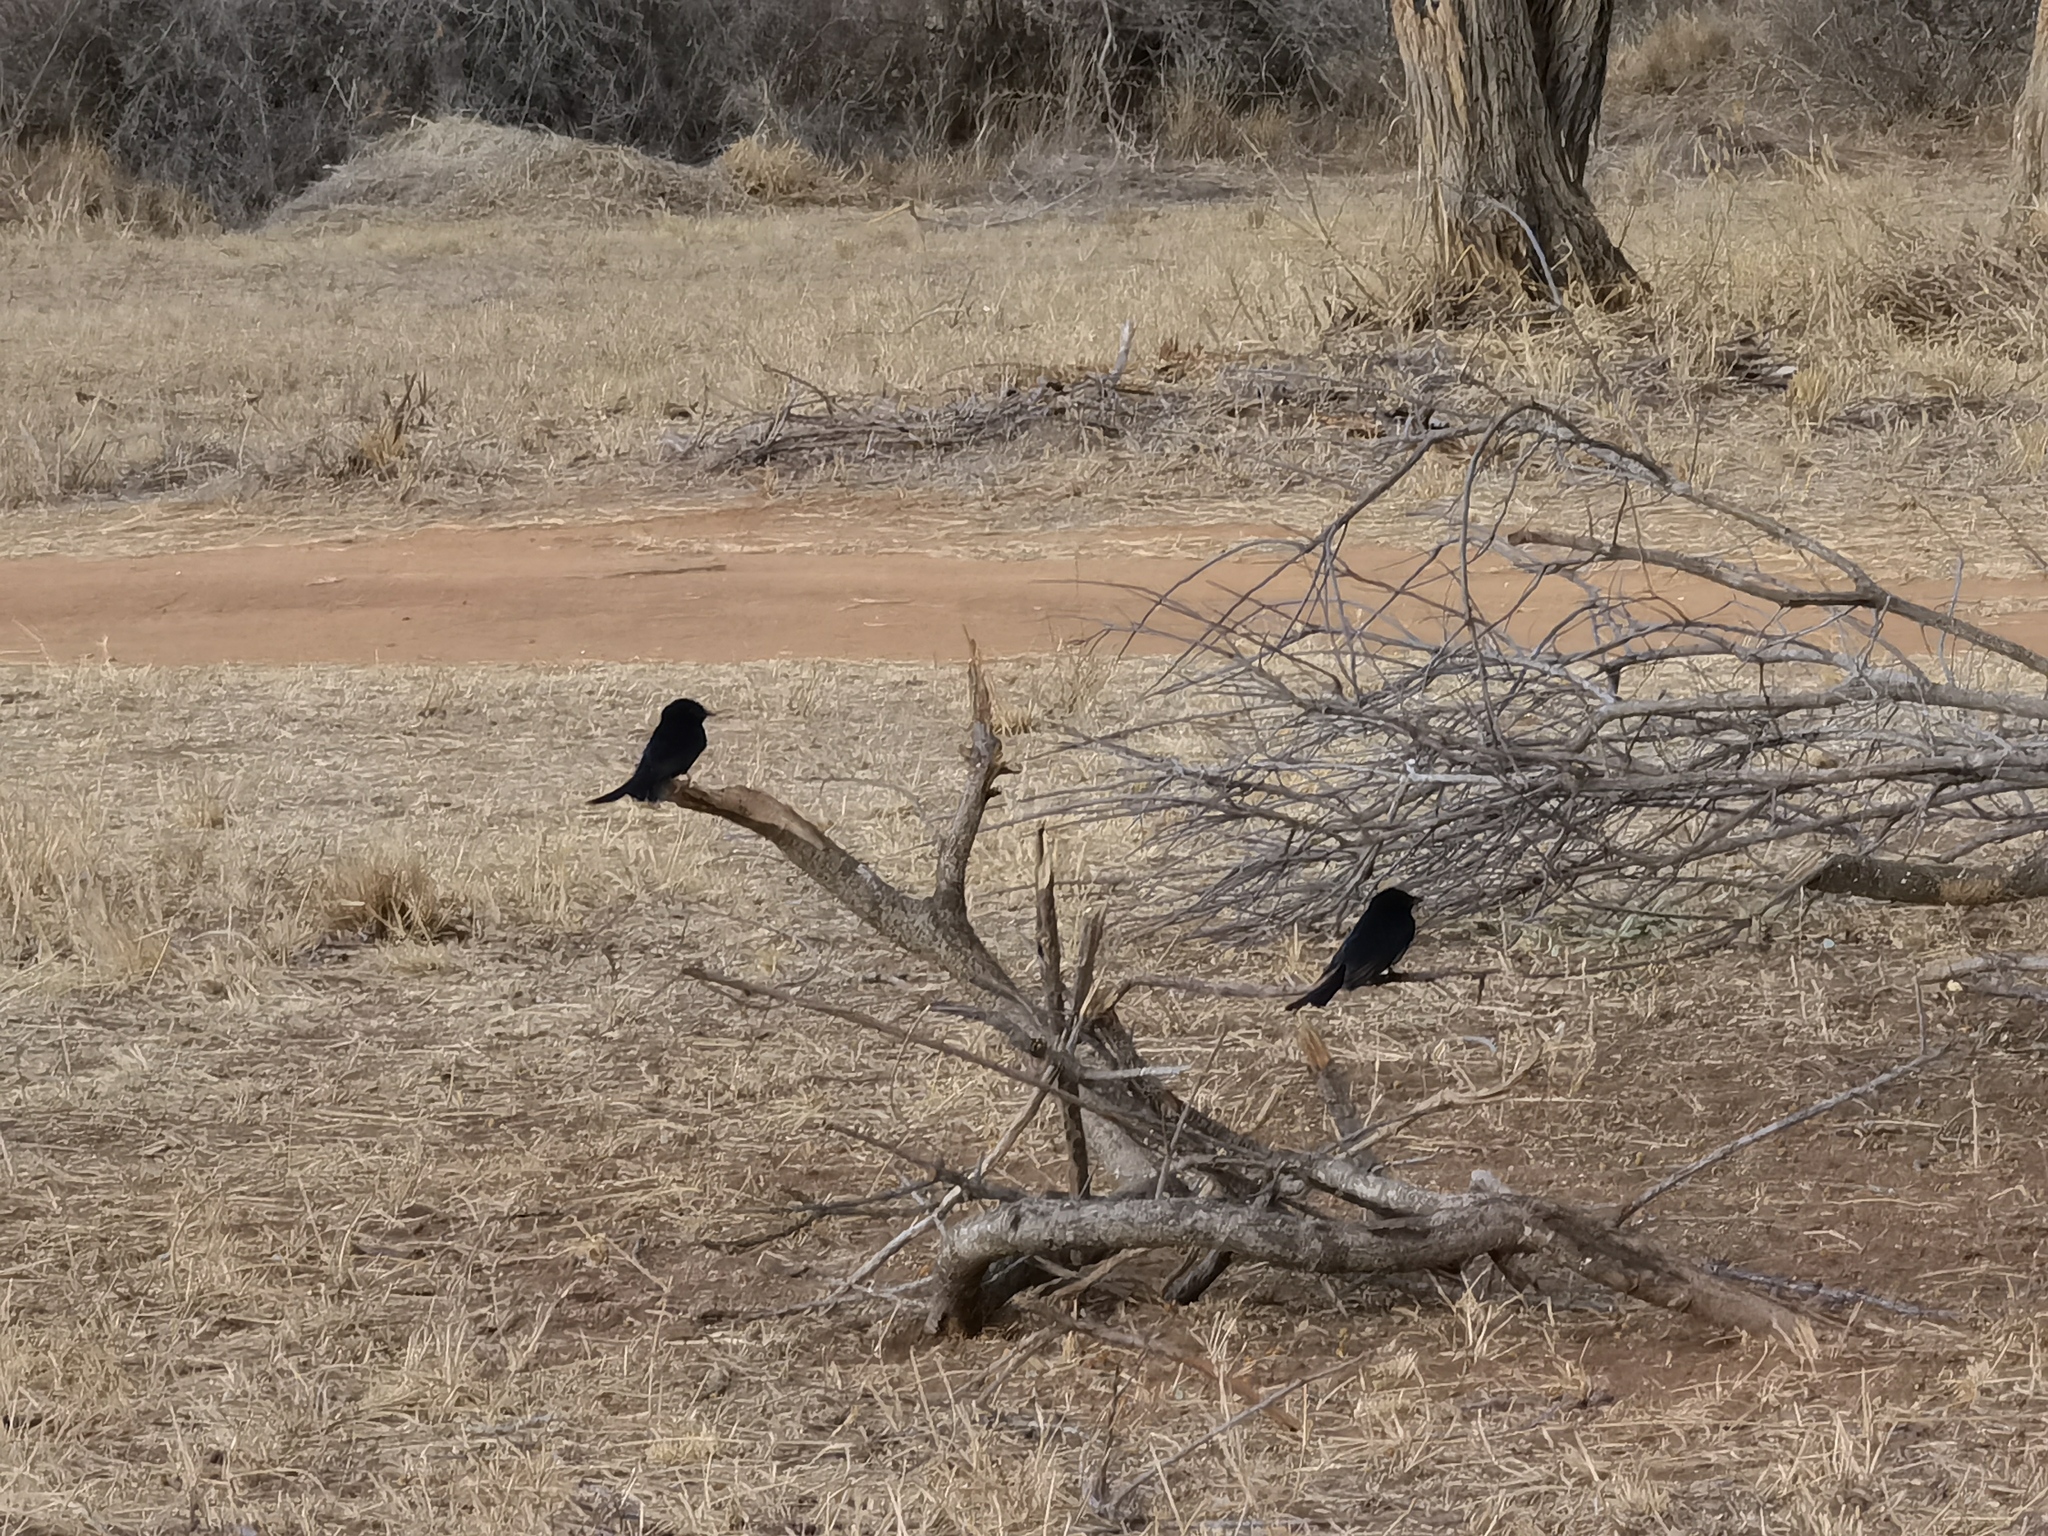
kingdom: Animalia
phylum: Chordata
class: Aves
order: Passeriformes
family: Dicruridae
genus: Dicrurus
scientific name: Dicrurus adsimilis
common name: Fork-tailed drongo
